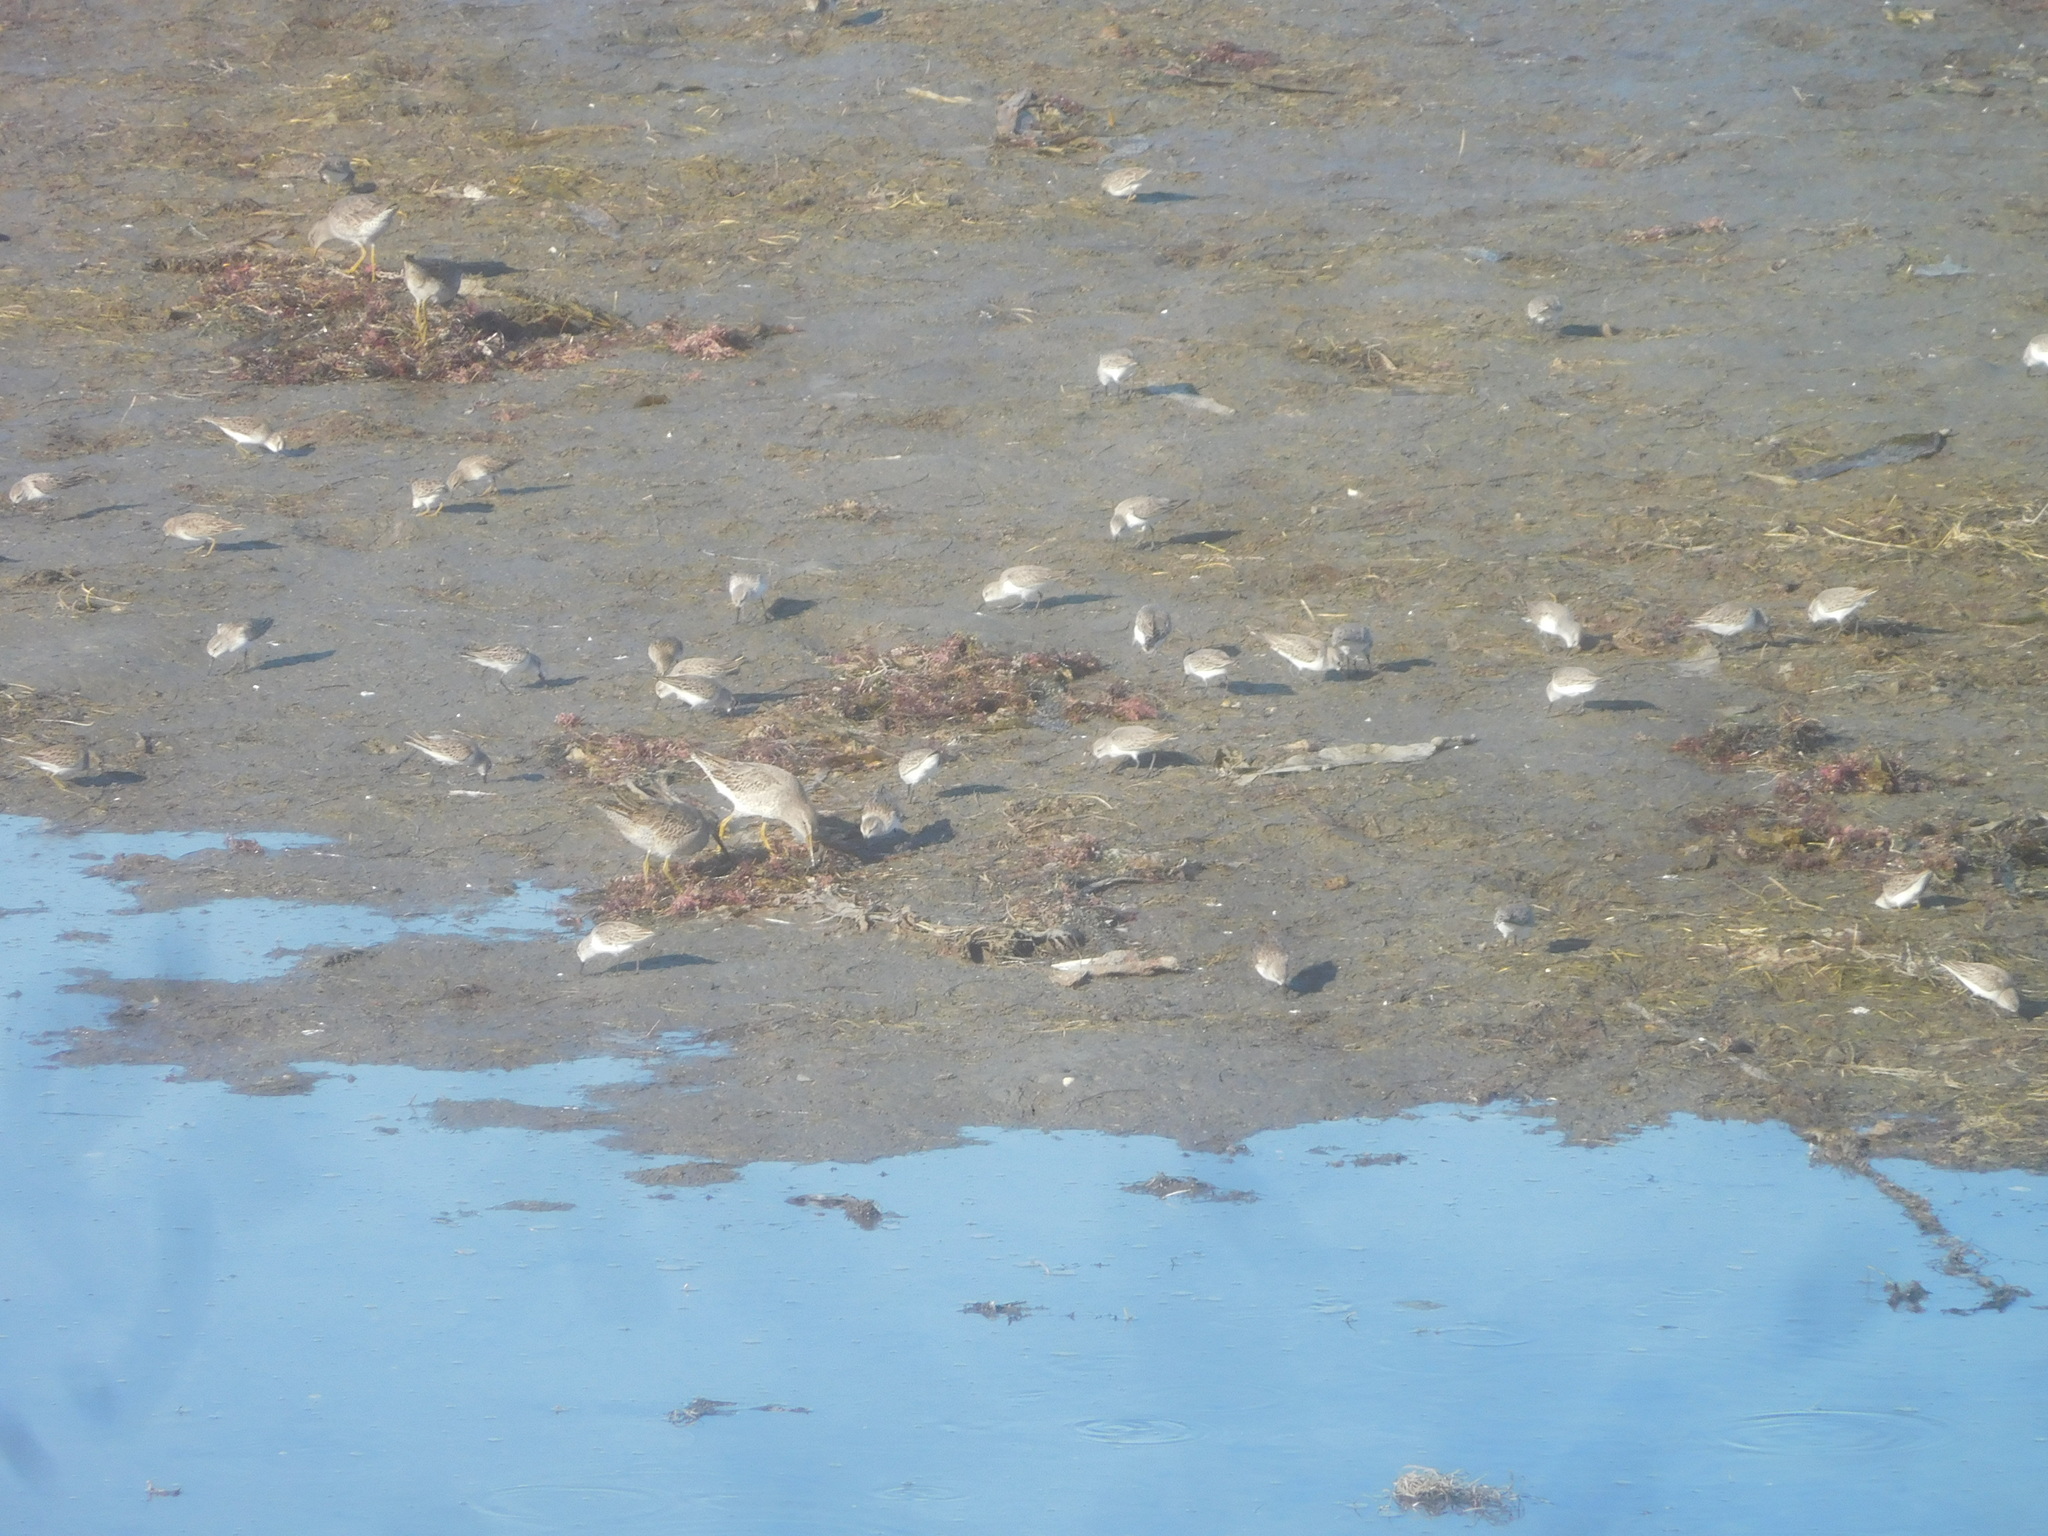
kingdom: Animalia
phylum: Chordata
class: Aves
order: Charadriiformes
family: Scolopacidae
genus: Limnodromus
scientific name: Limnodromus
